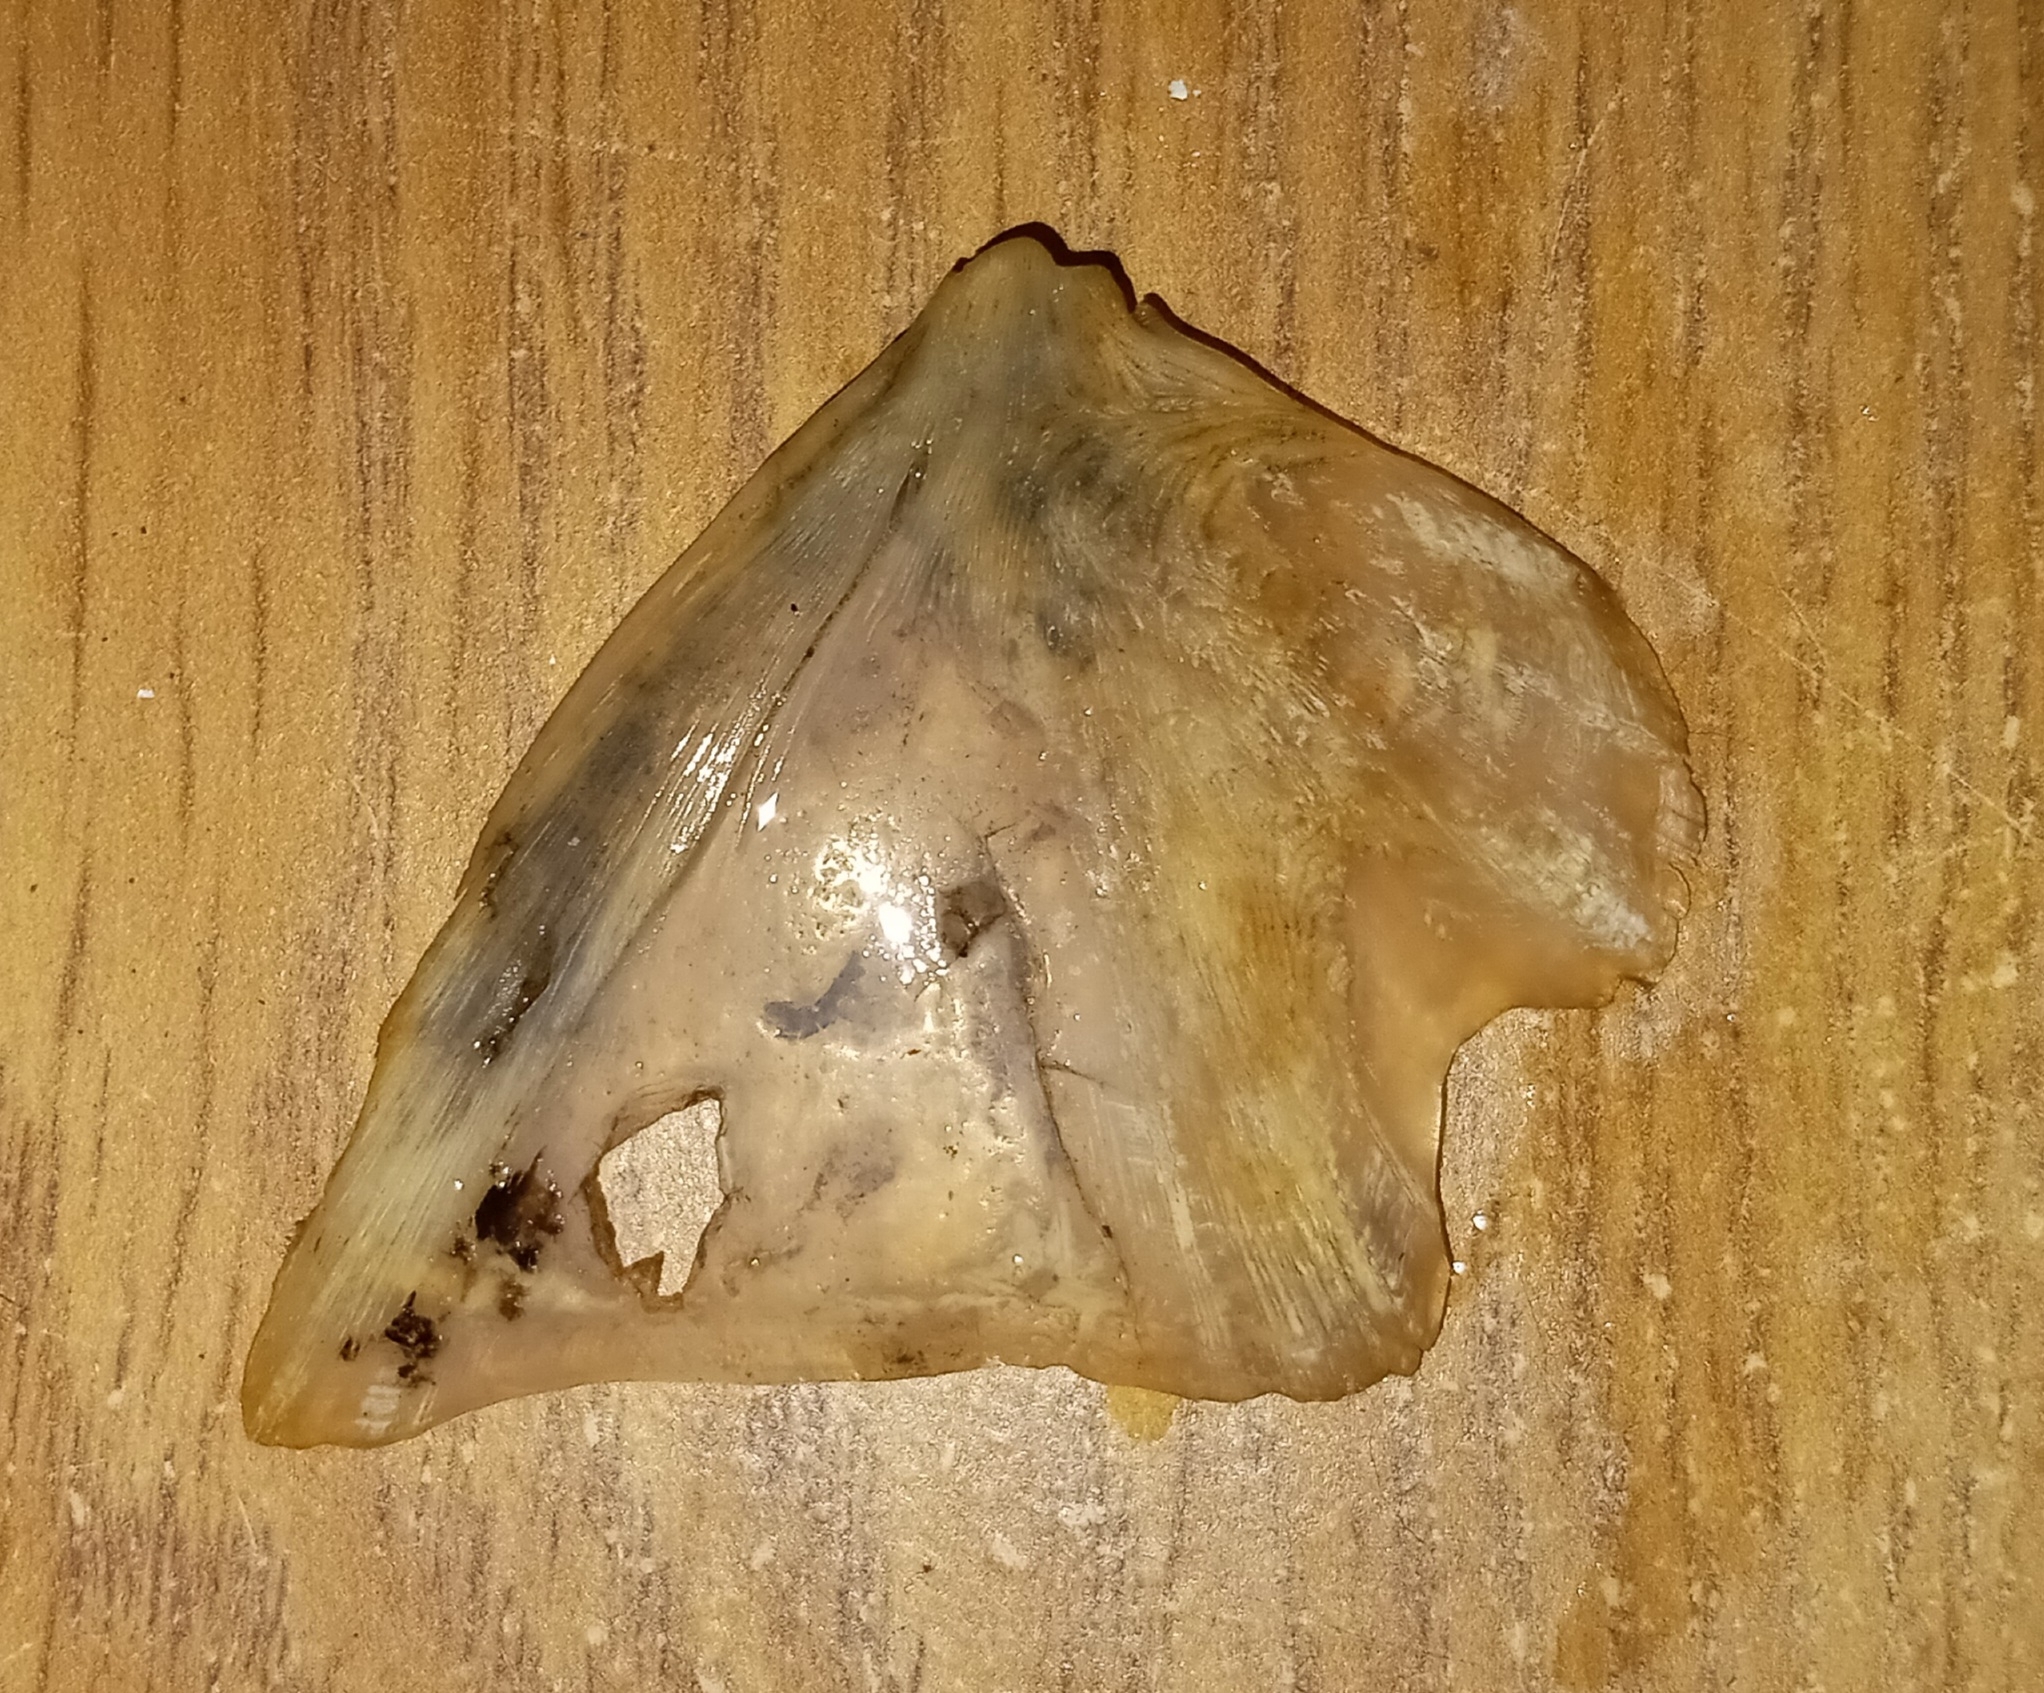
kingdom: Animalia
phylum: Chordata
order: Perciformes
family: Sciaenidae
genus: Aplodinotus
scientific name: Aplodinotus grunniens
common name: Freshwater drum
